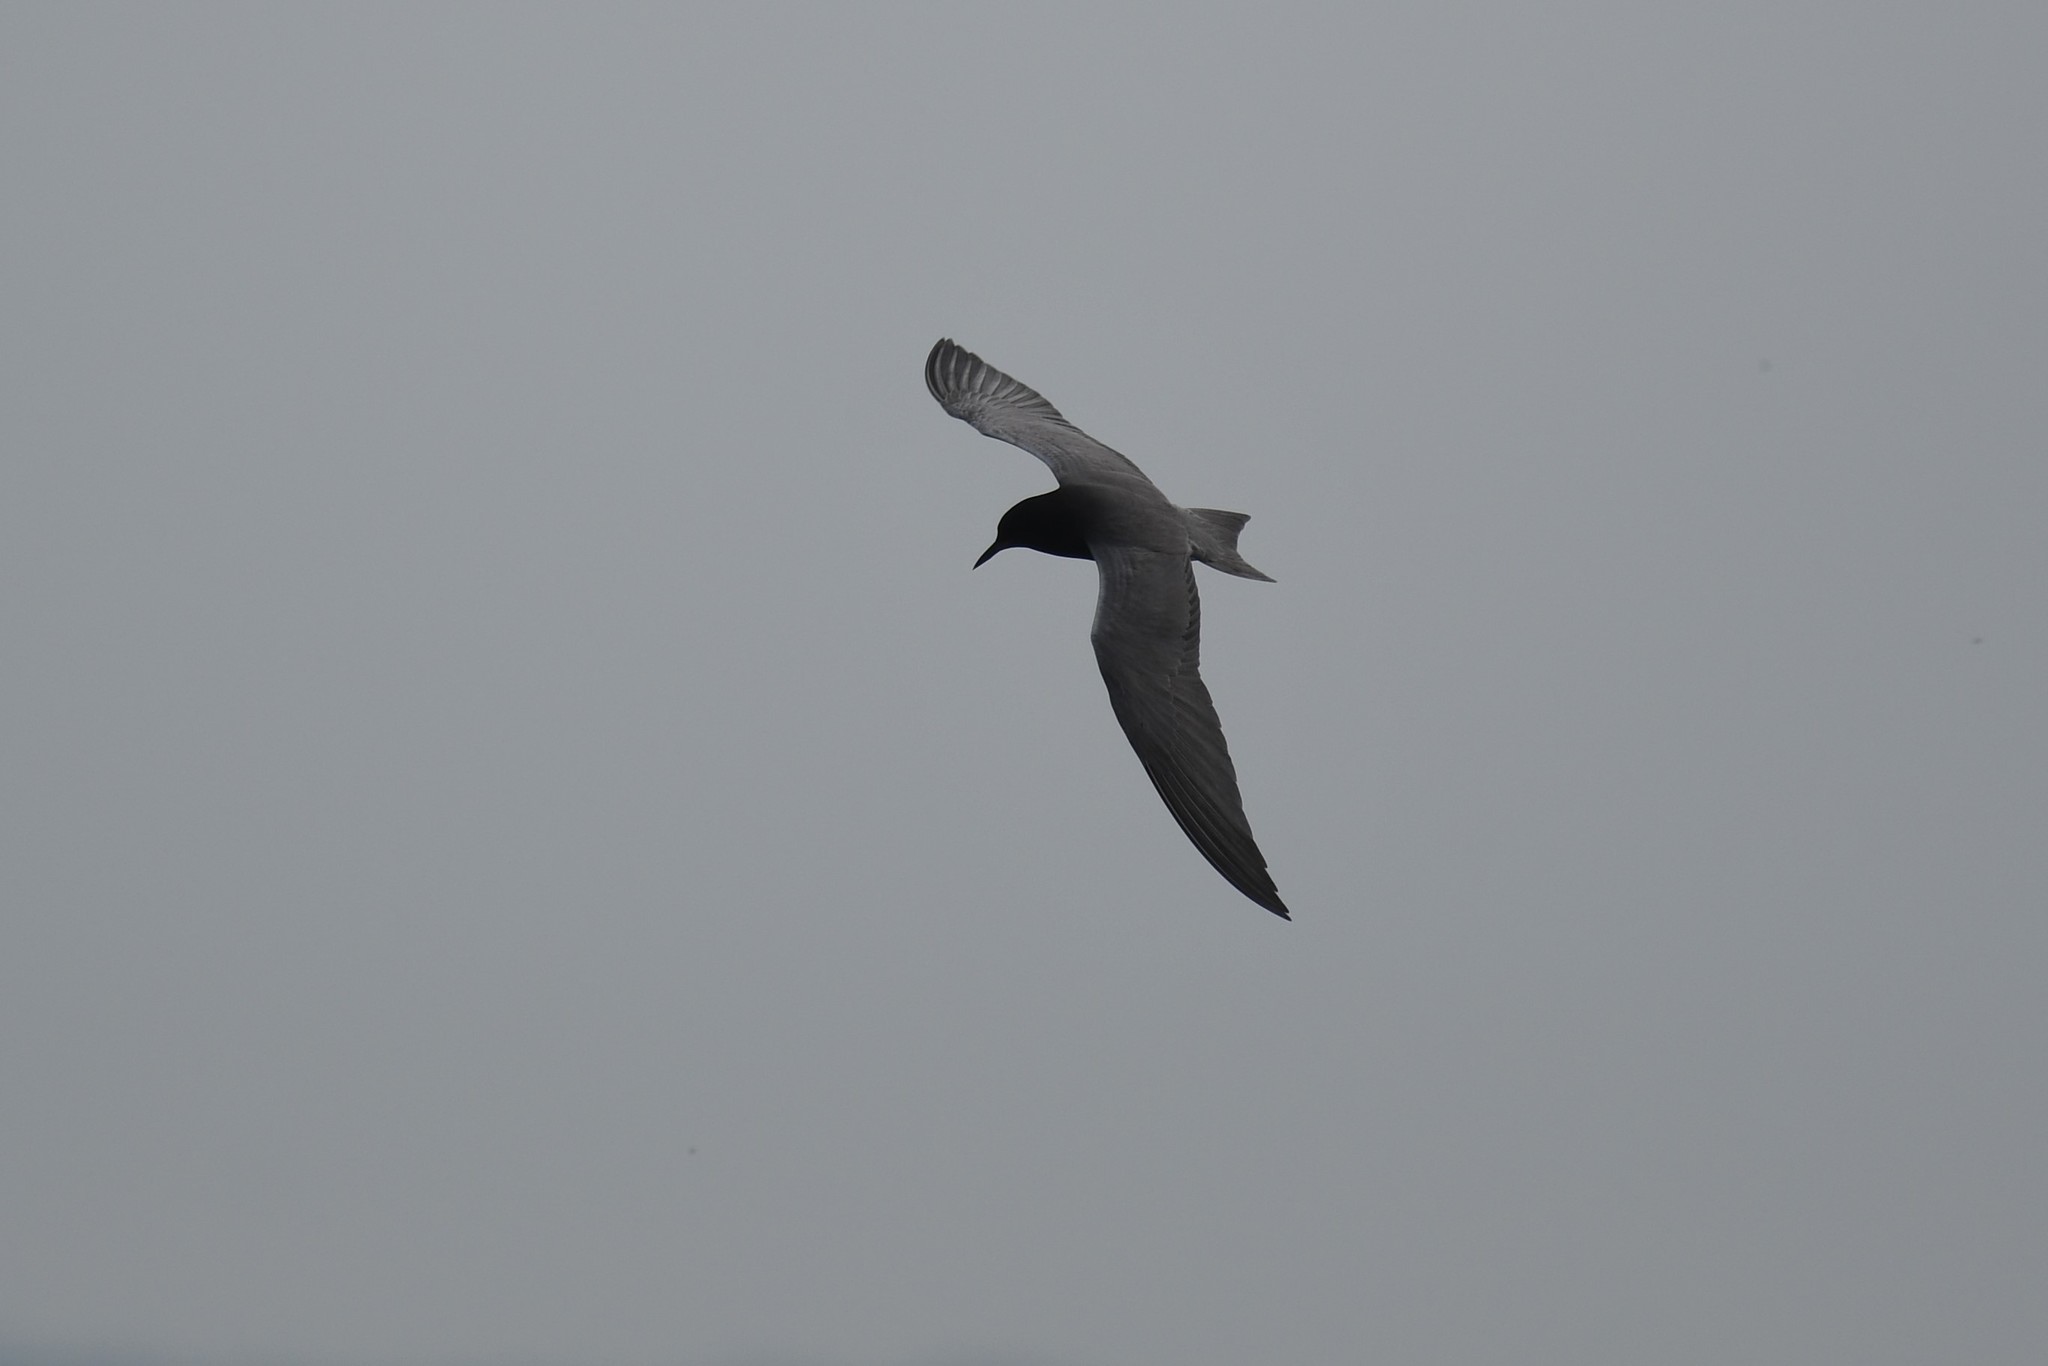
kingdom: Animalia
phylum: Chordata
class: Aves
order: Charadriiformes
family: Laridae
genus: Chlidonias
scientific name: Chlidonias niger
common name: Black tern
